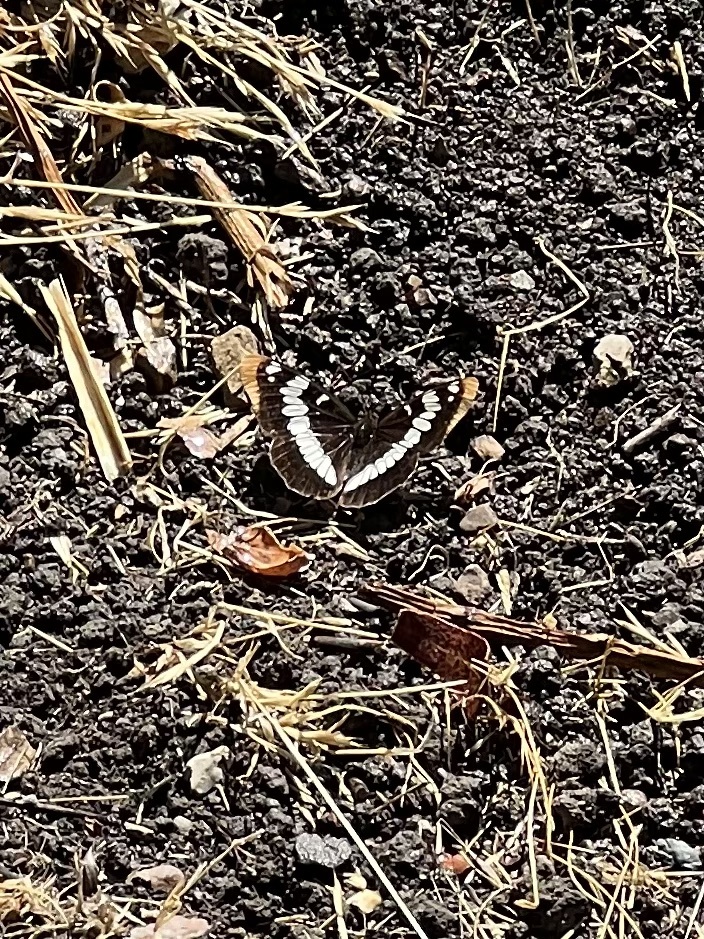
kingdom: Animalia
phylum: Arthropoda
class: Insecta
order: Lepidoptera
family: Nymphalidae
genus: Limenitis
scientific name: Limenitis lorquini
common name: Lorquin's admiral
